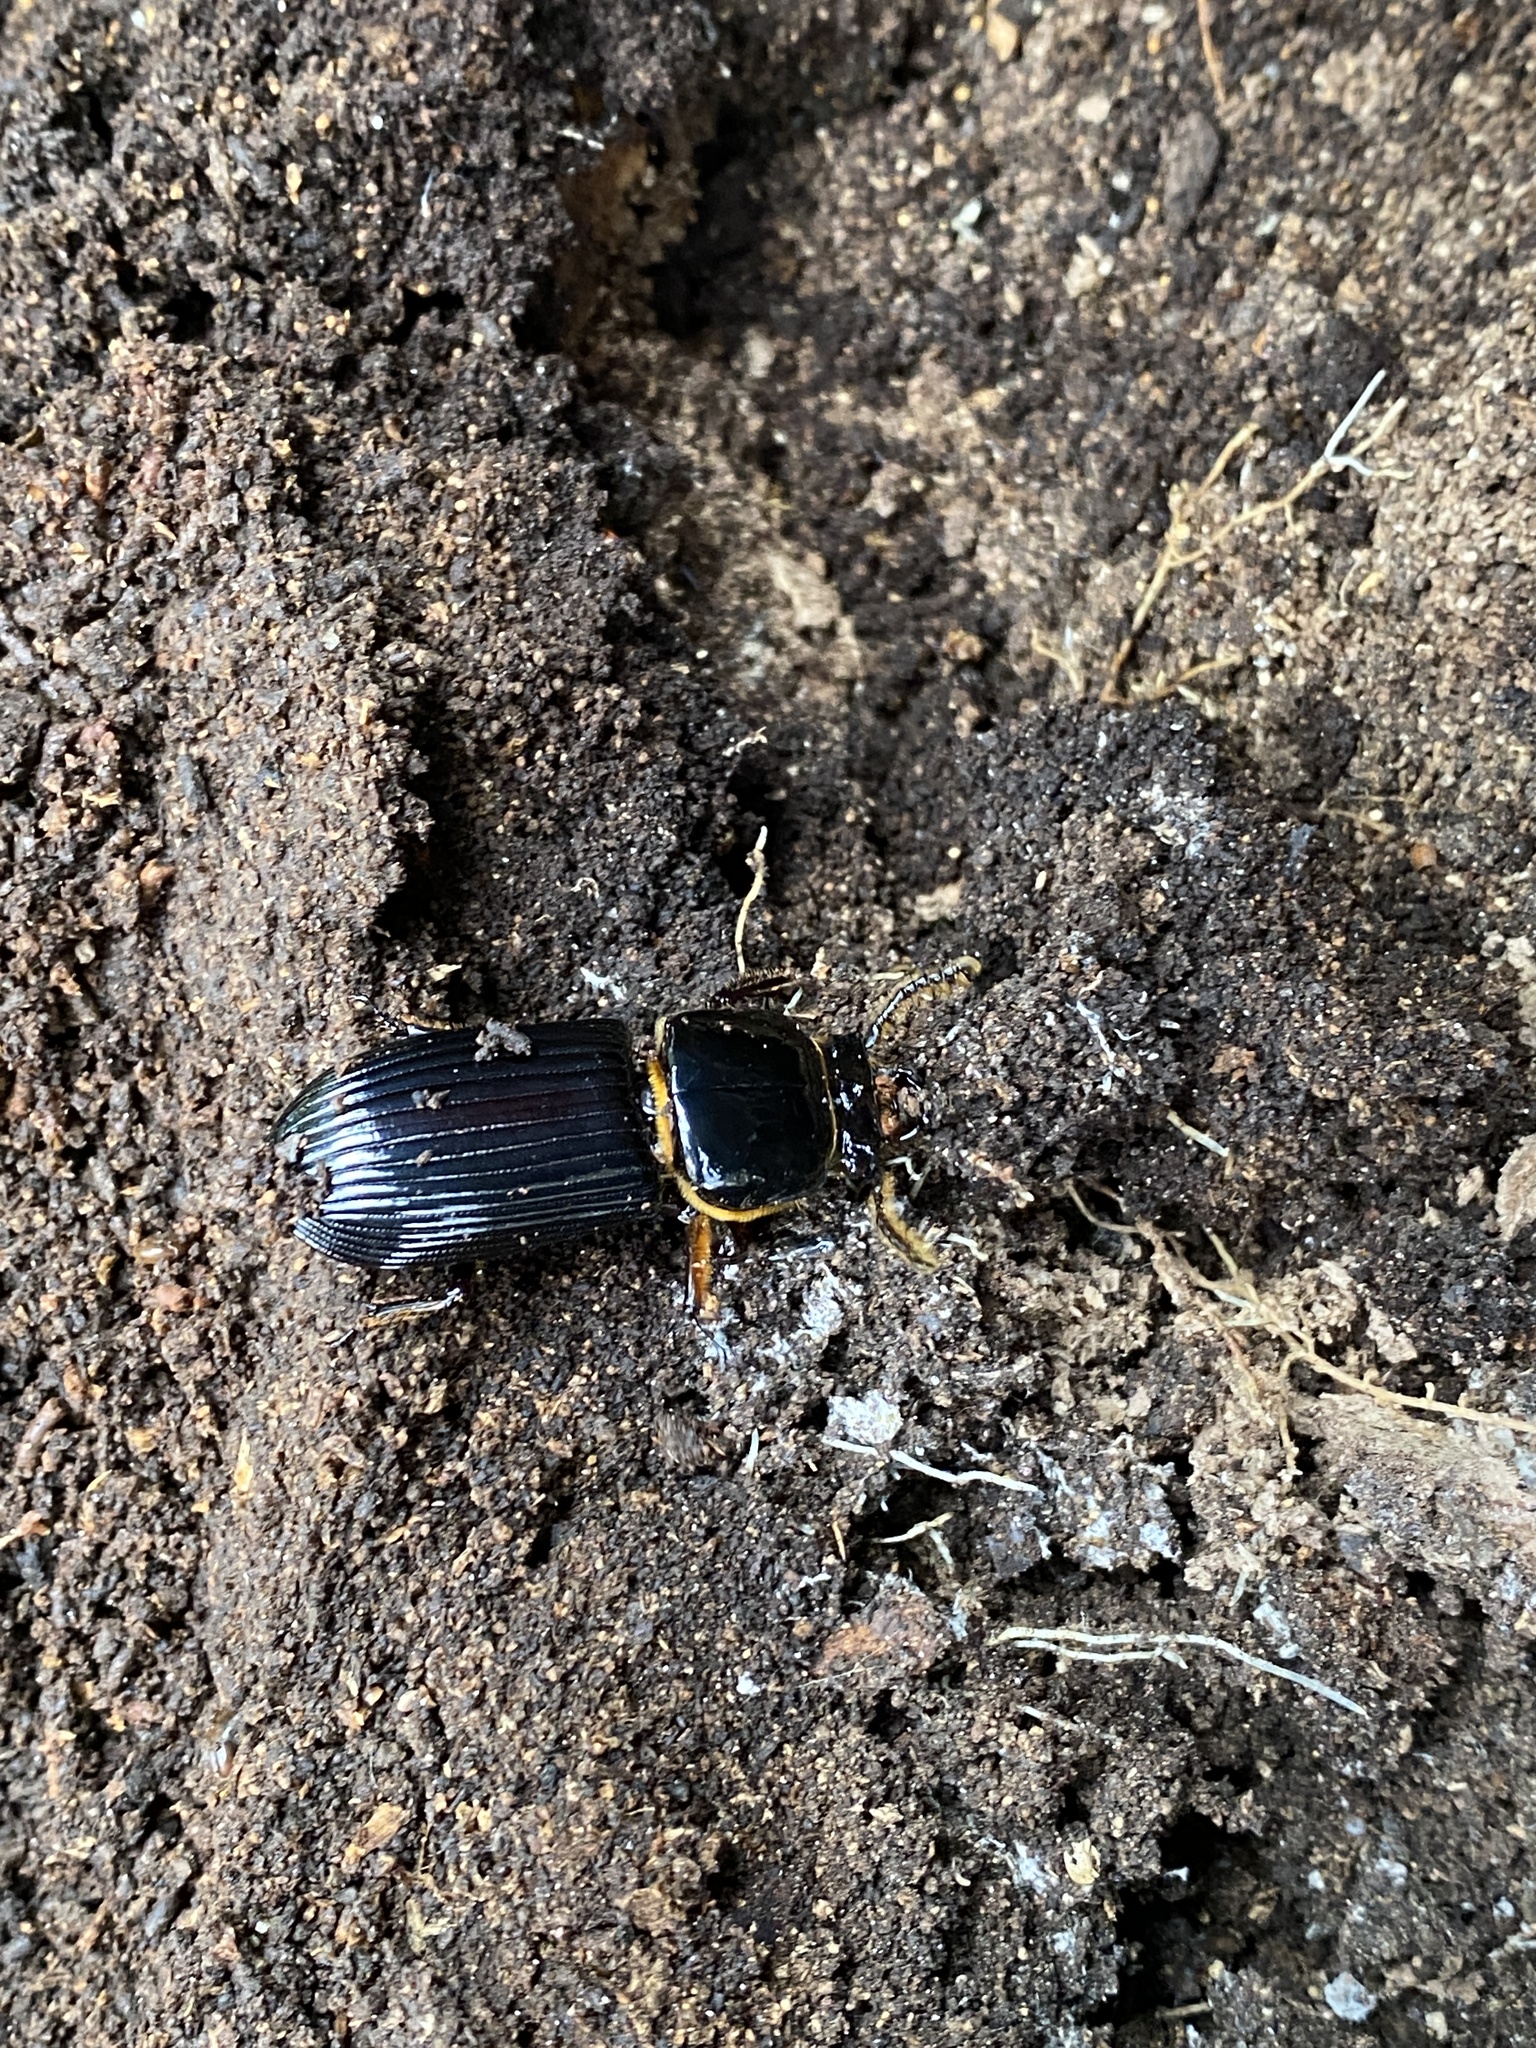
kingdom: Animalia
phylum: Arthropoda
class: Insecta
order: Coleoptera
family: Passalidae
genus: Odontotaenius
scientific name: Odontotaenius disjunctus
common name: Patent leather beetle
